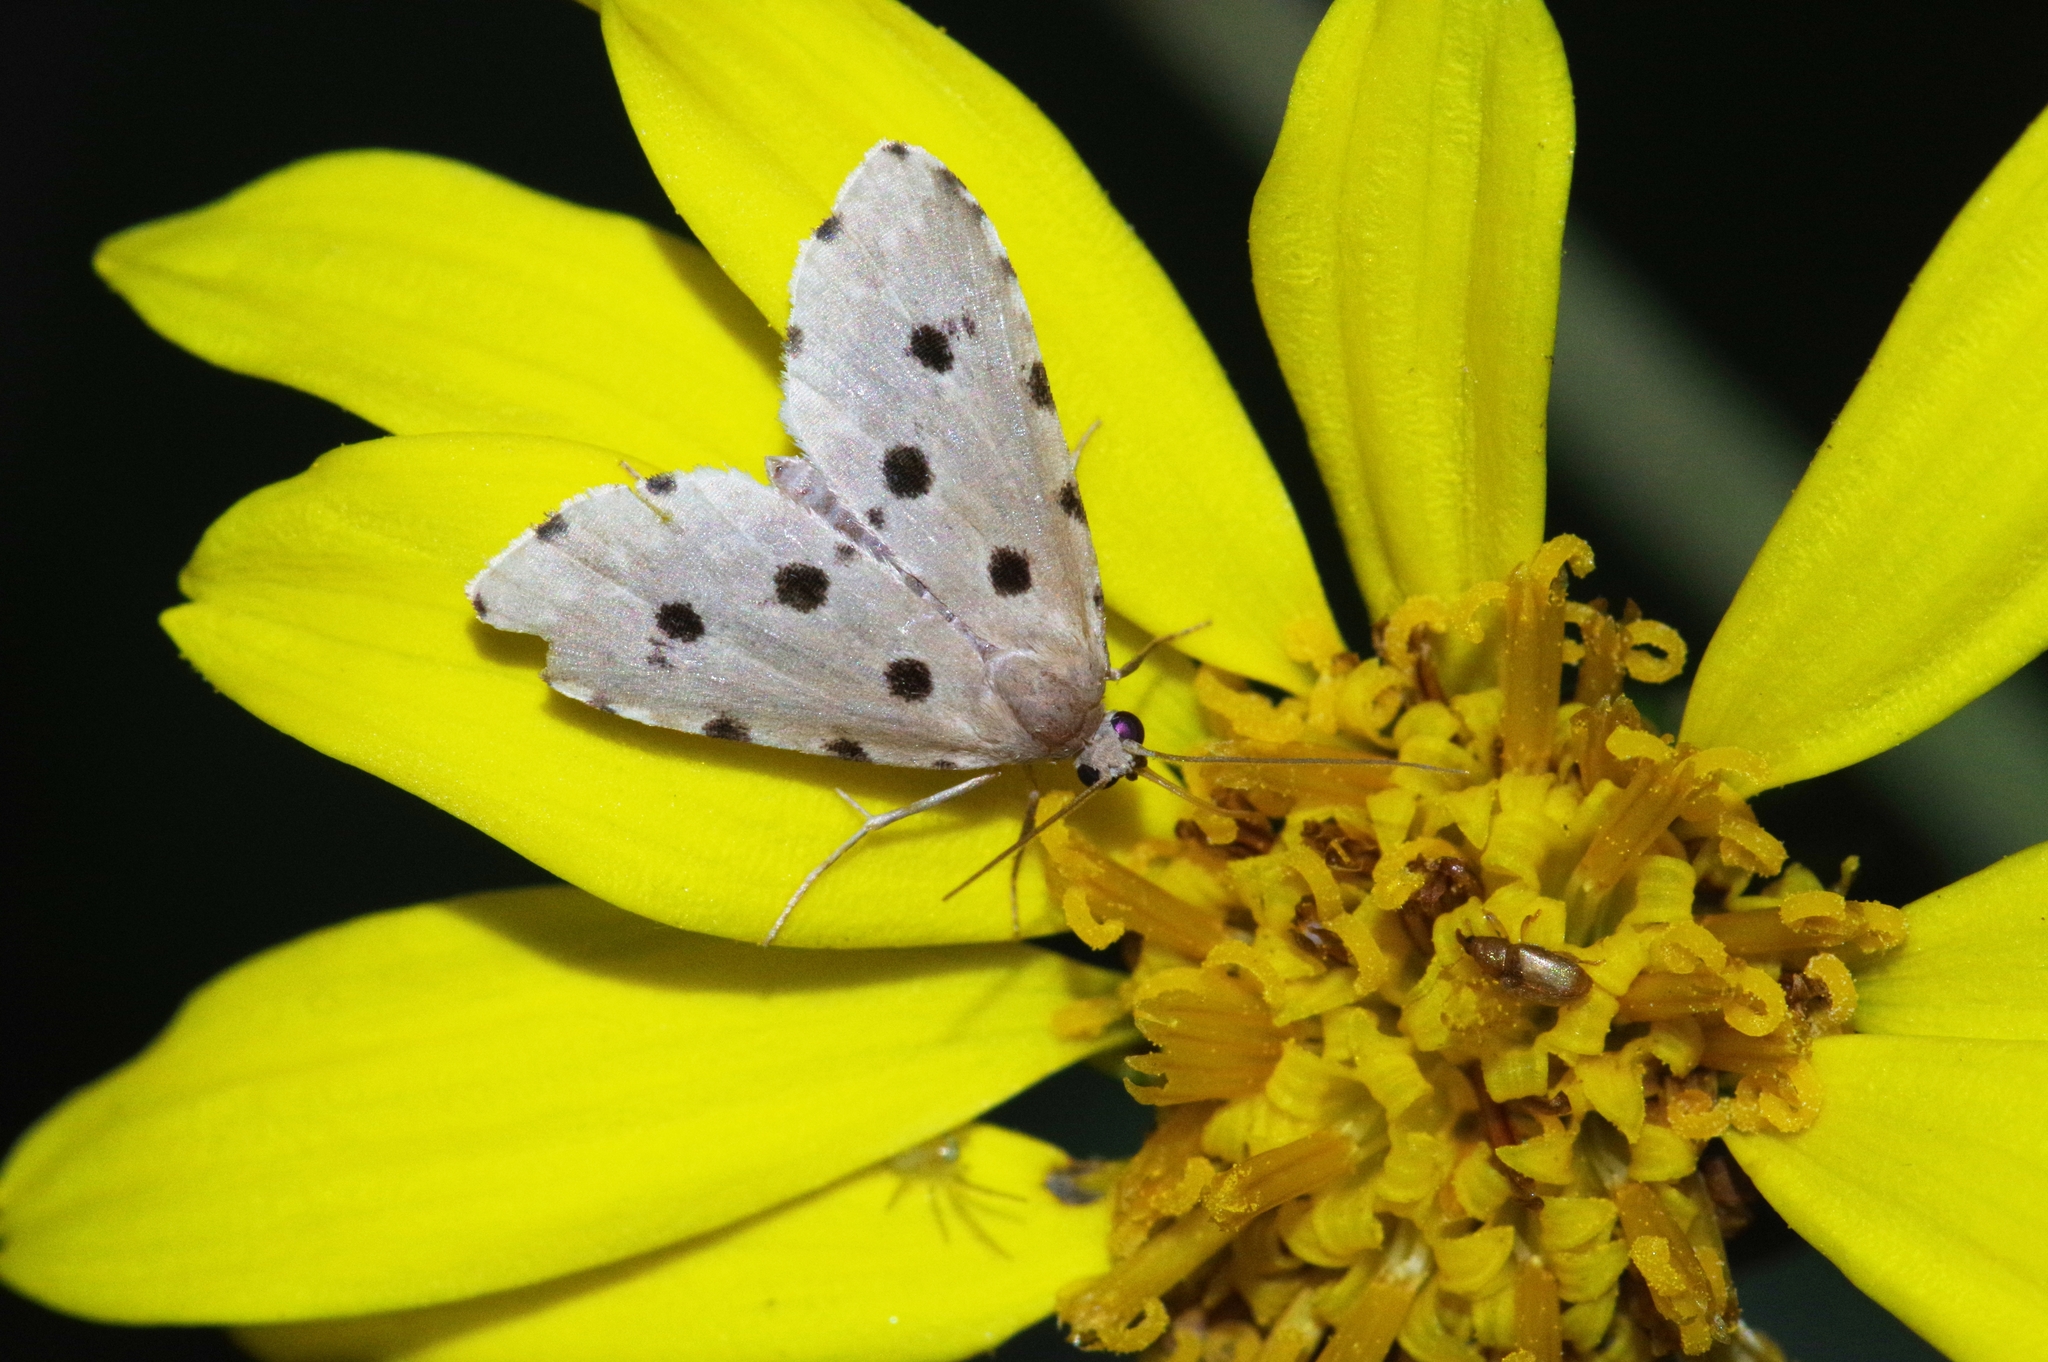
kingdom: Animalia
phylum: Arthropoda
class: Insecta
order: Lepidoptera
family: Noctuidae
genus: Metaemene
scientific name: Metaemene atrigutta
